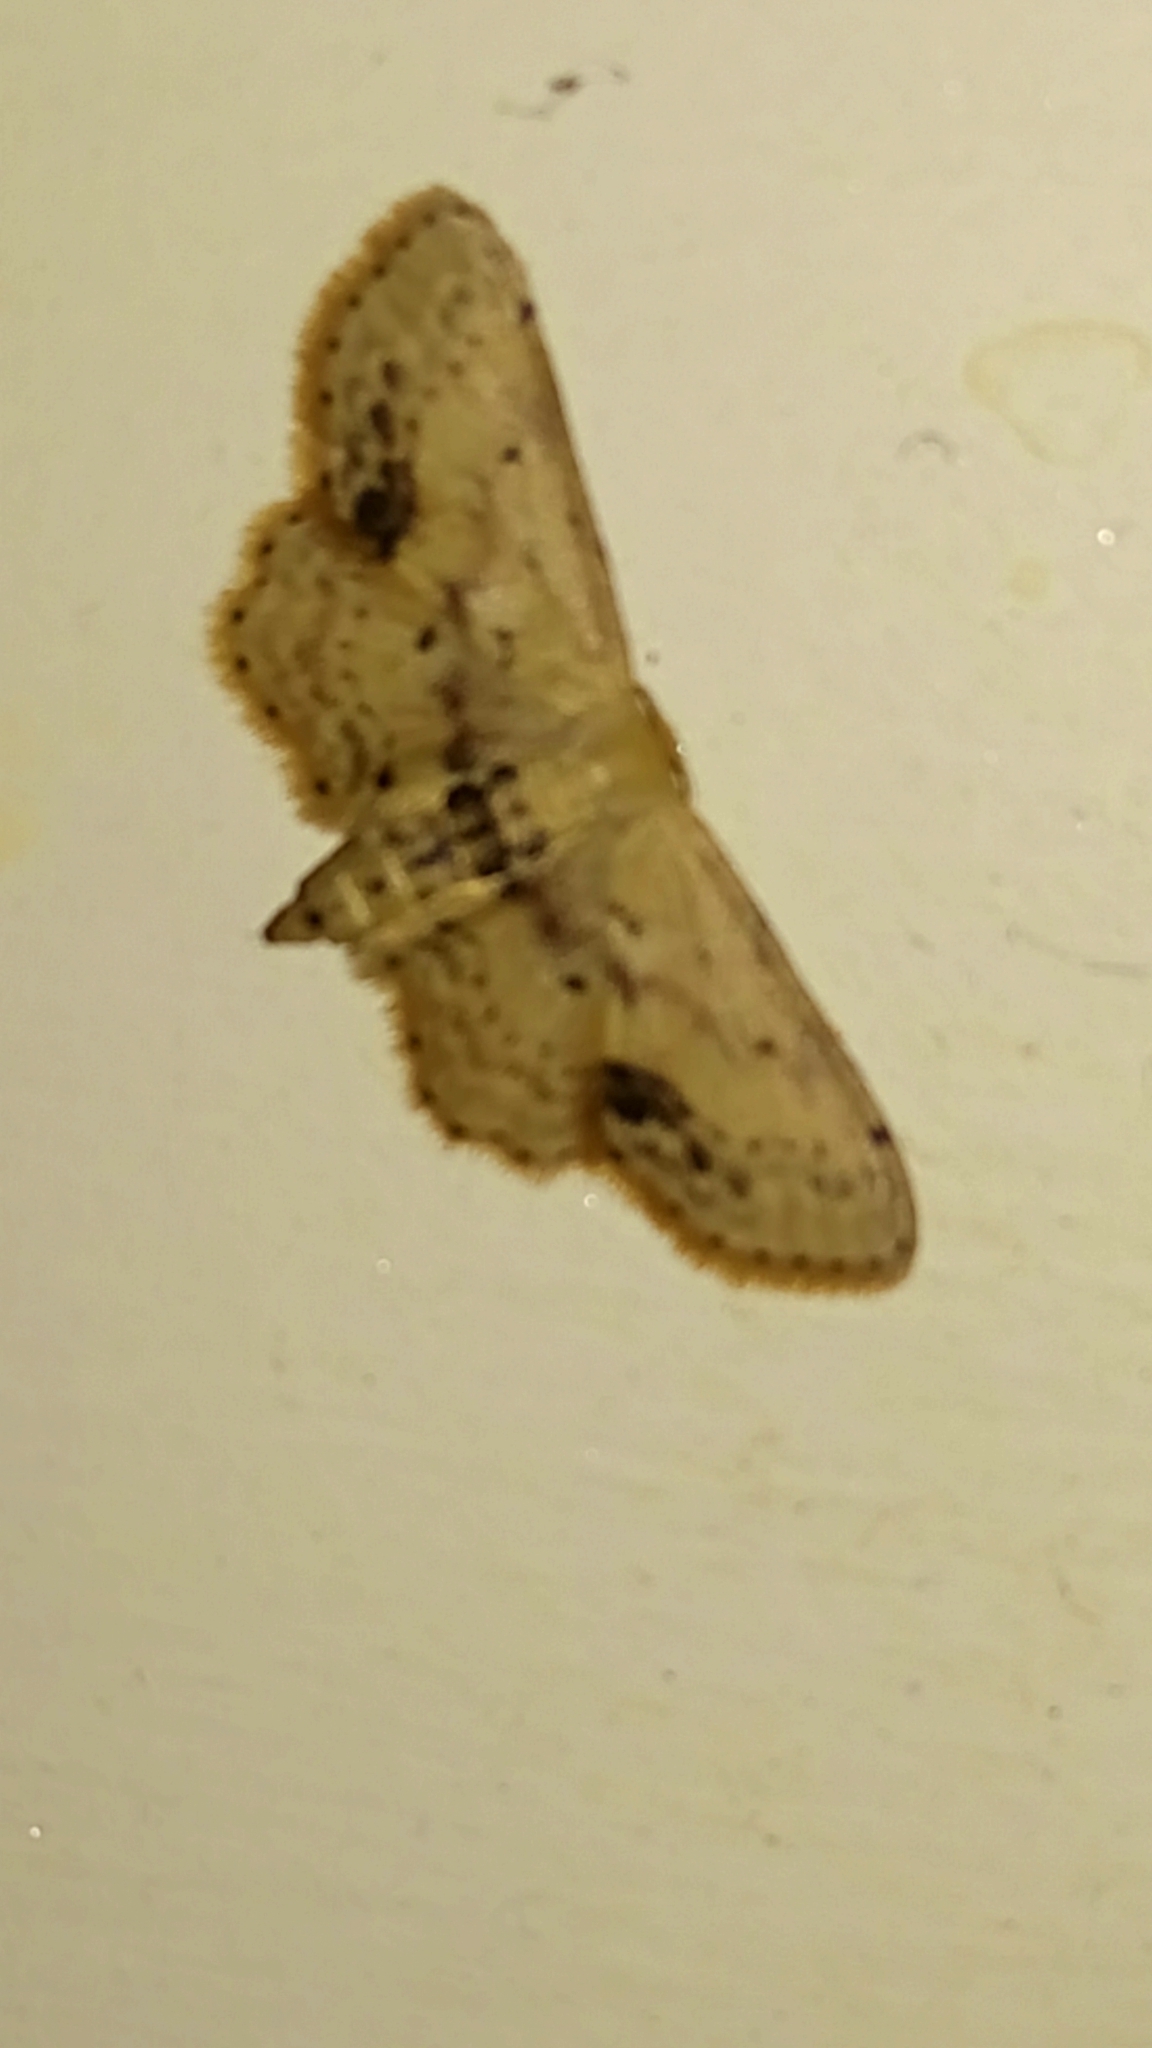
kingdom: Animalia
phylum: Arthropoda
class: Insecta
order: Lepidoptera
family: Geometridae
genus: Idaea
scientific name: Idaea dimidiata
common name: Single-dotted wave
